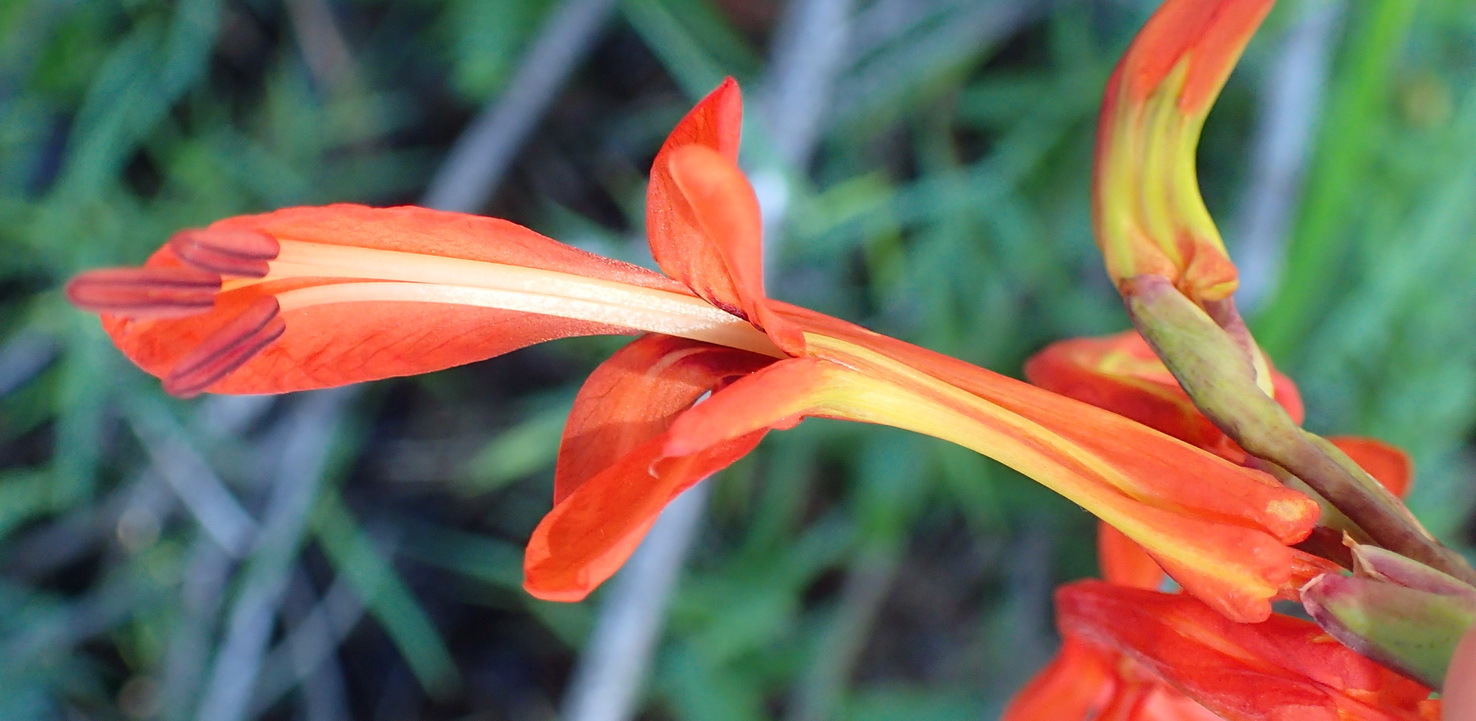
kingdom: Plantae
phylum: Tracheophyta
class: Liliopsida
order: Asparagales
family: Iridaceae
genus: Chasmanthe
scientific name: Chasmanthe aethiopica
